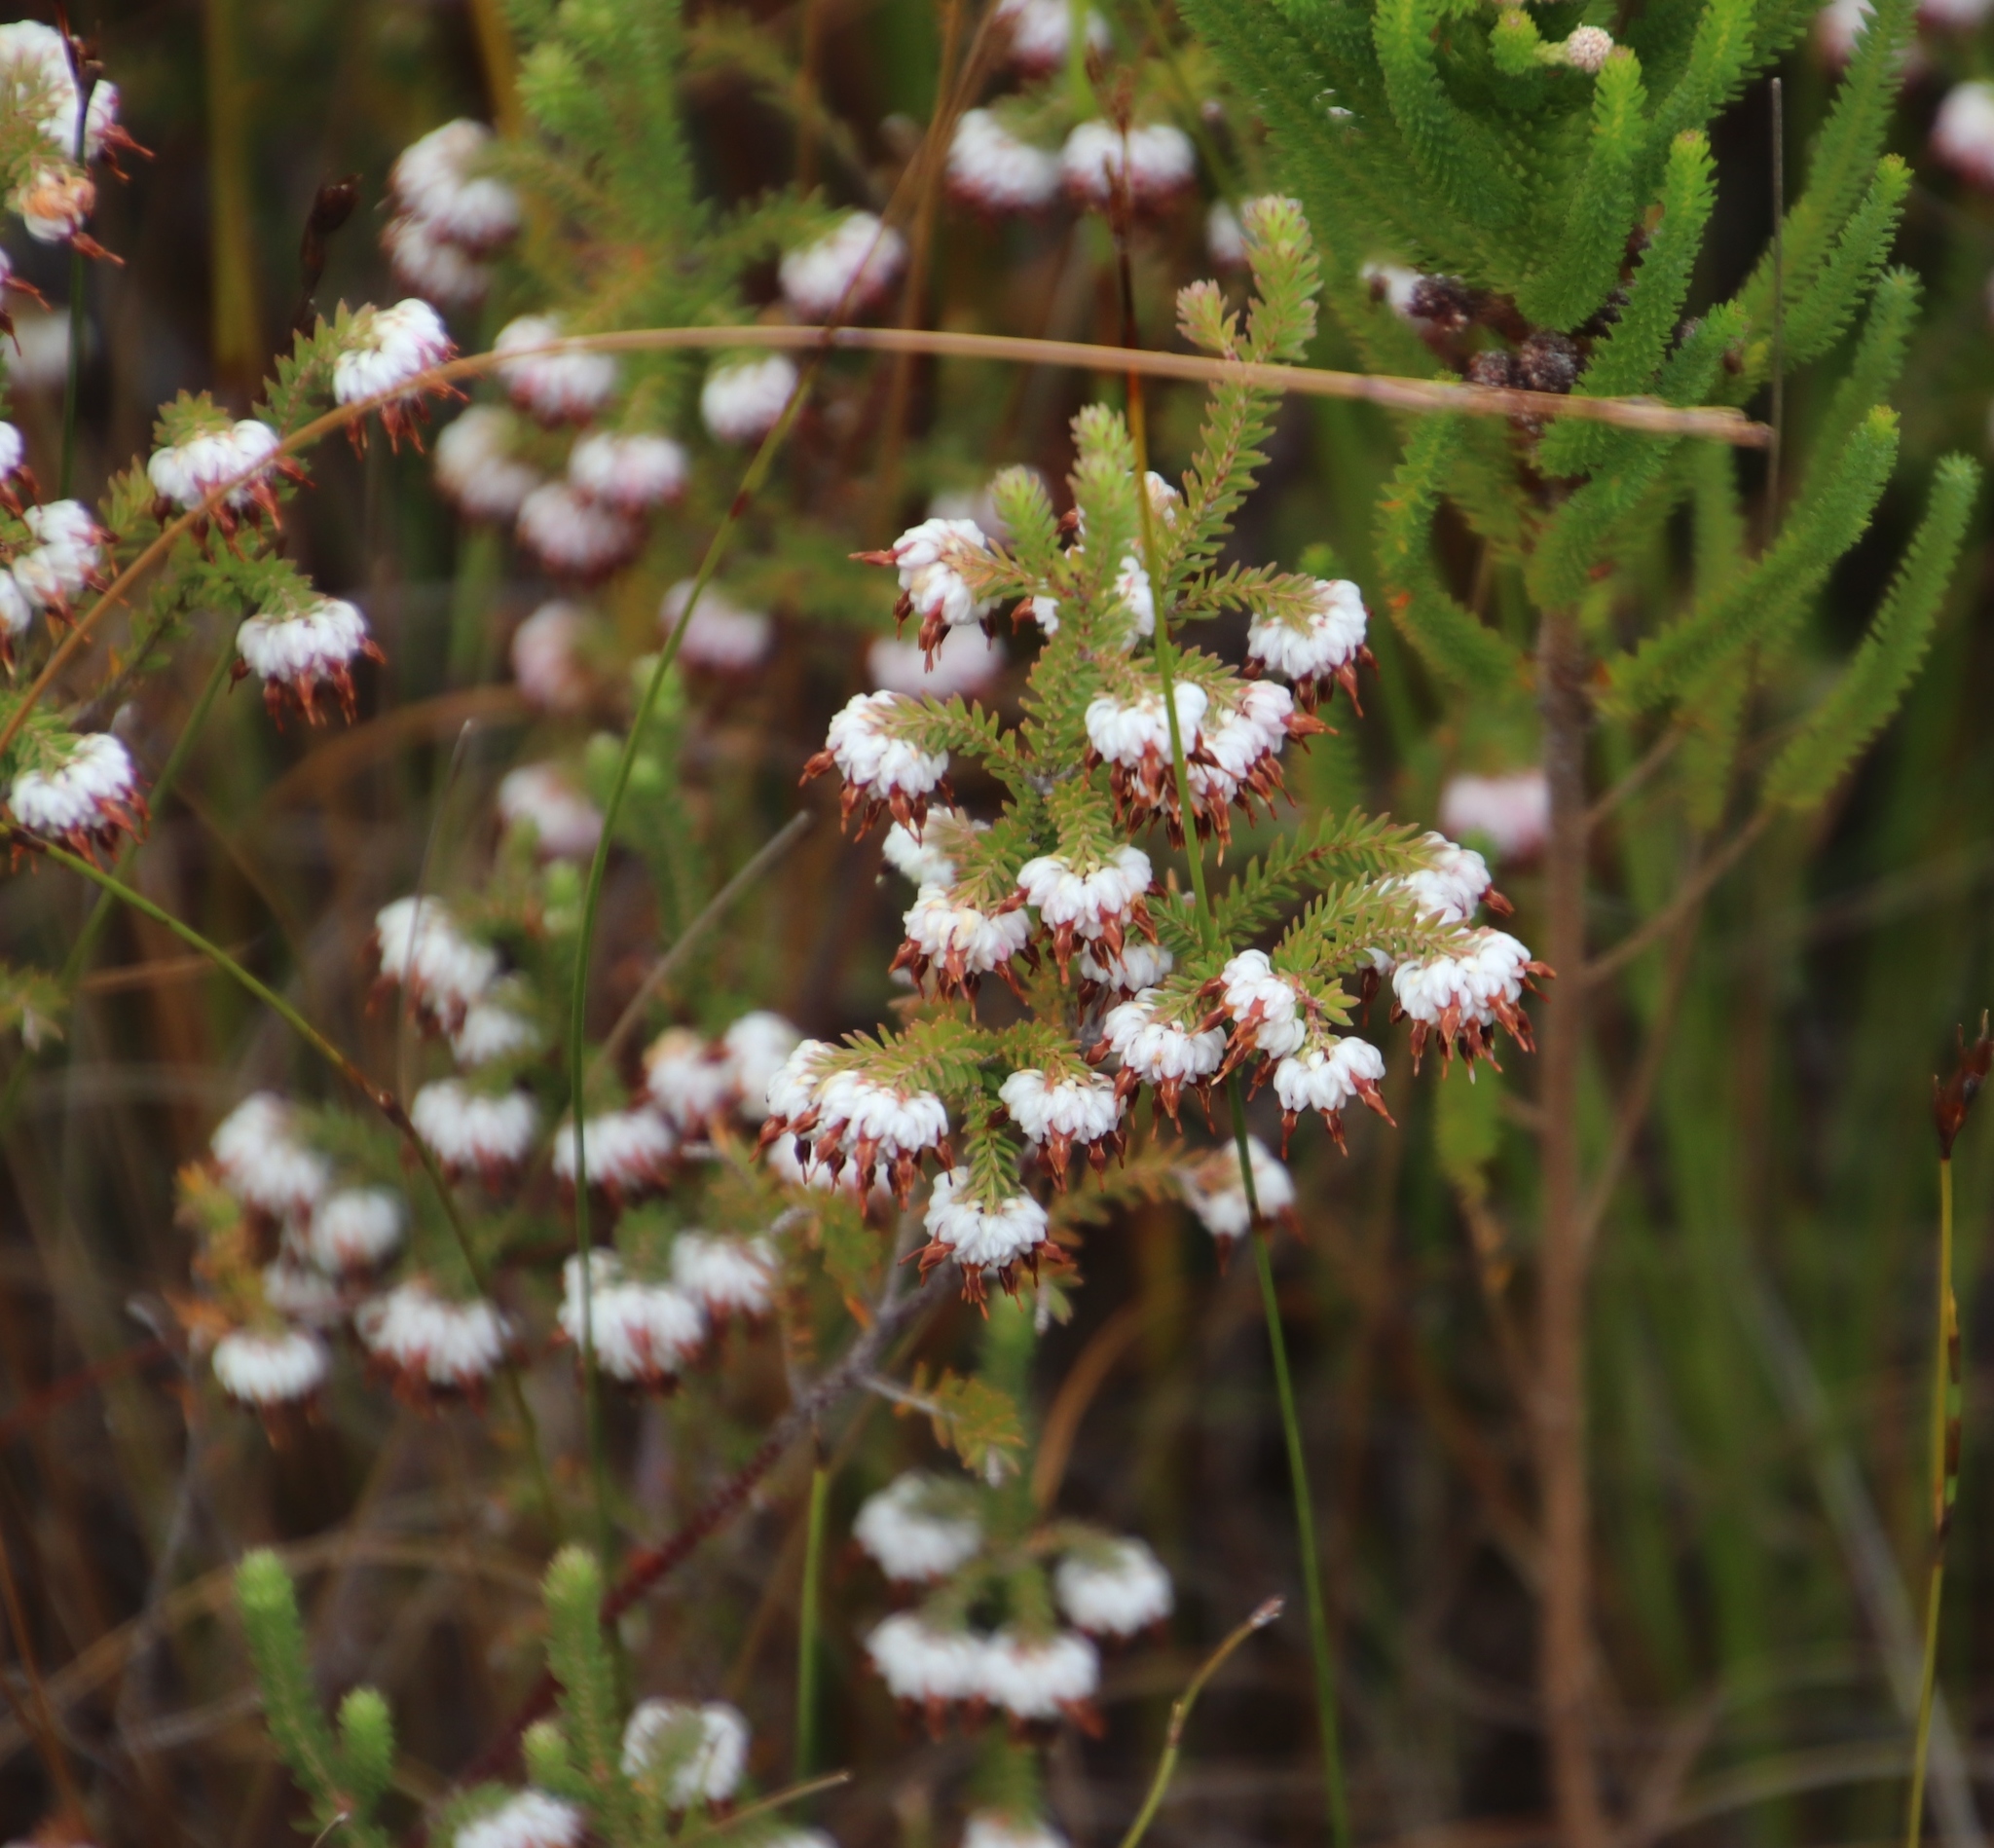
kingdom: Plantae
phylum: Tracheophyta
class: Magnoliopsida
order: Ericales
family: Ericaceae
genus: Erica
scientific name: Erica cumuliflora
